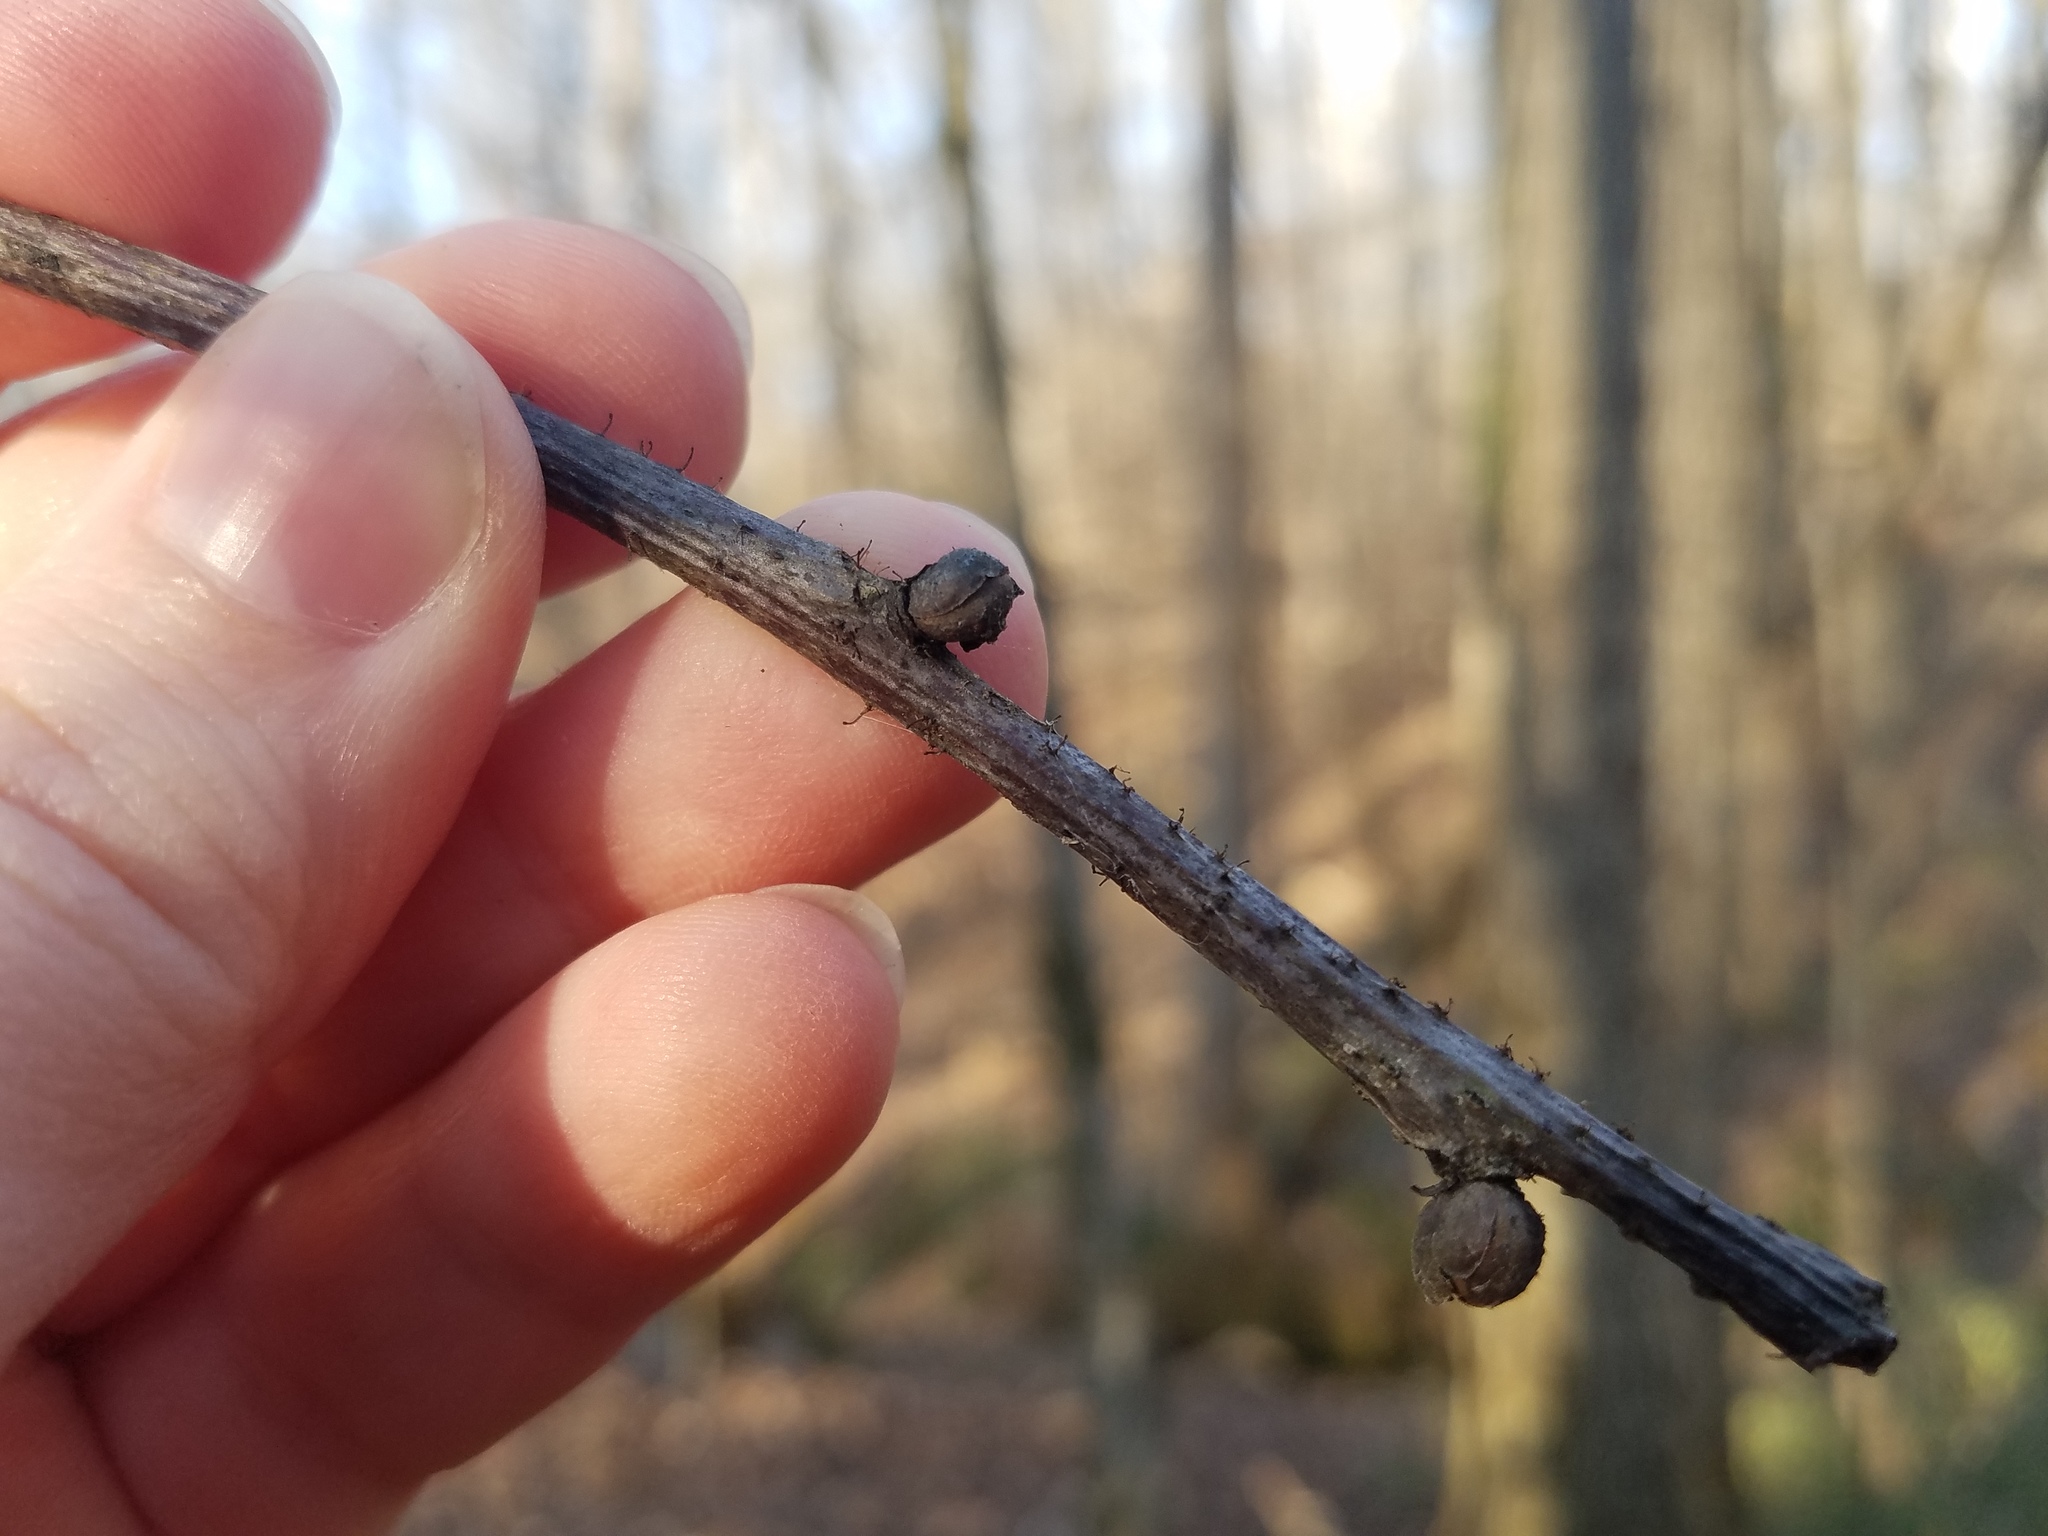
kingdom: Fungi
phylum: Ascomycota
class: Sordariomycetes
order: Hypocreales
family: Nectriaceae
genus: Nectria
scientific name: Nectria pseudotrichia
